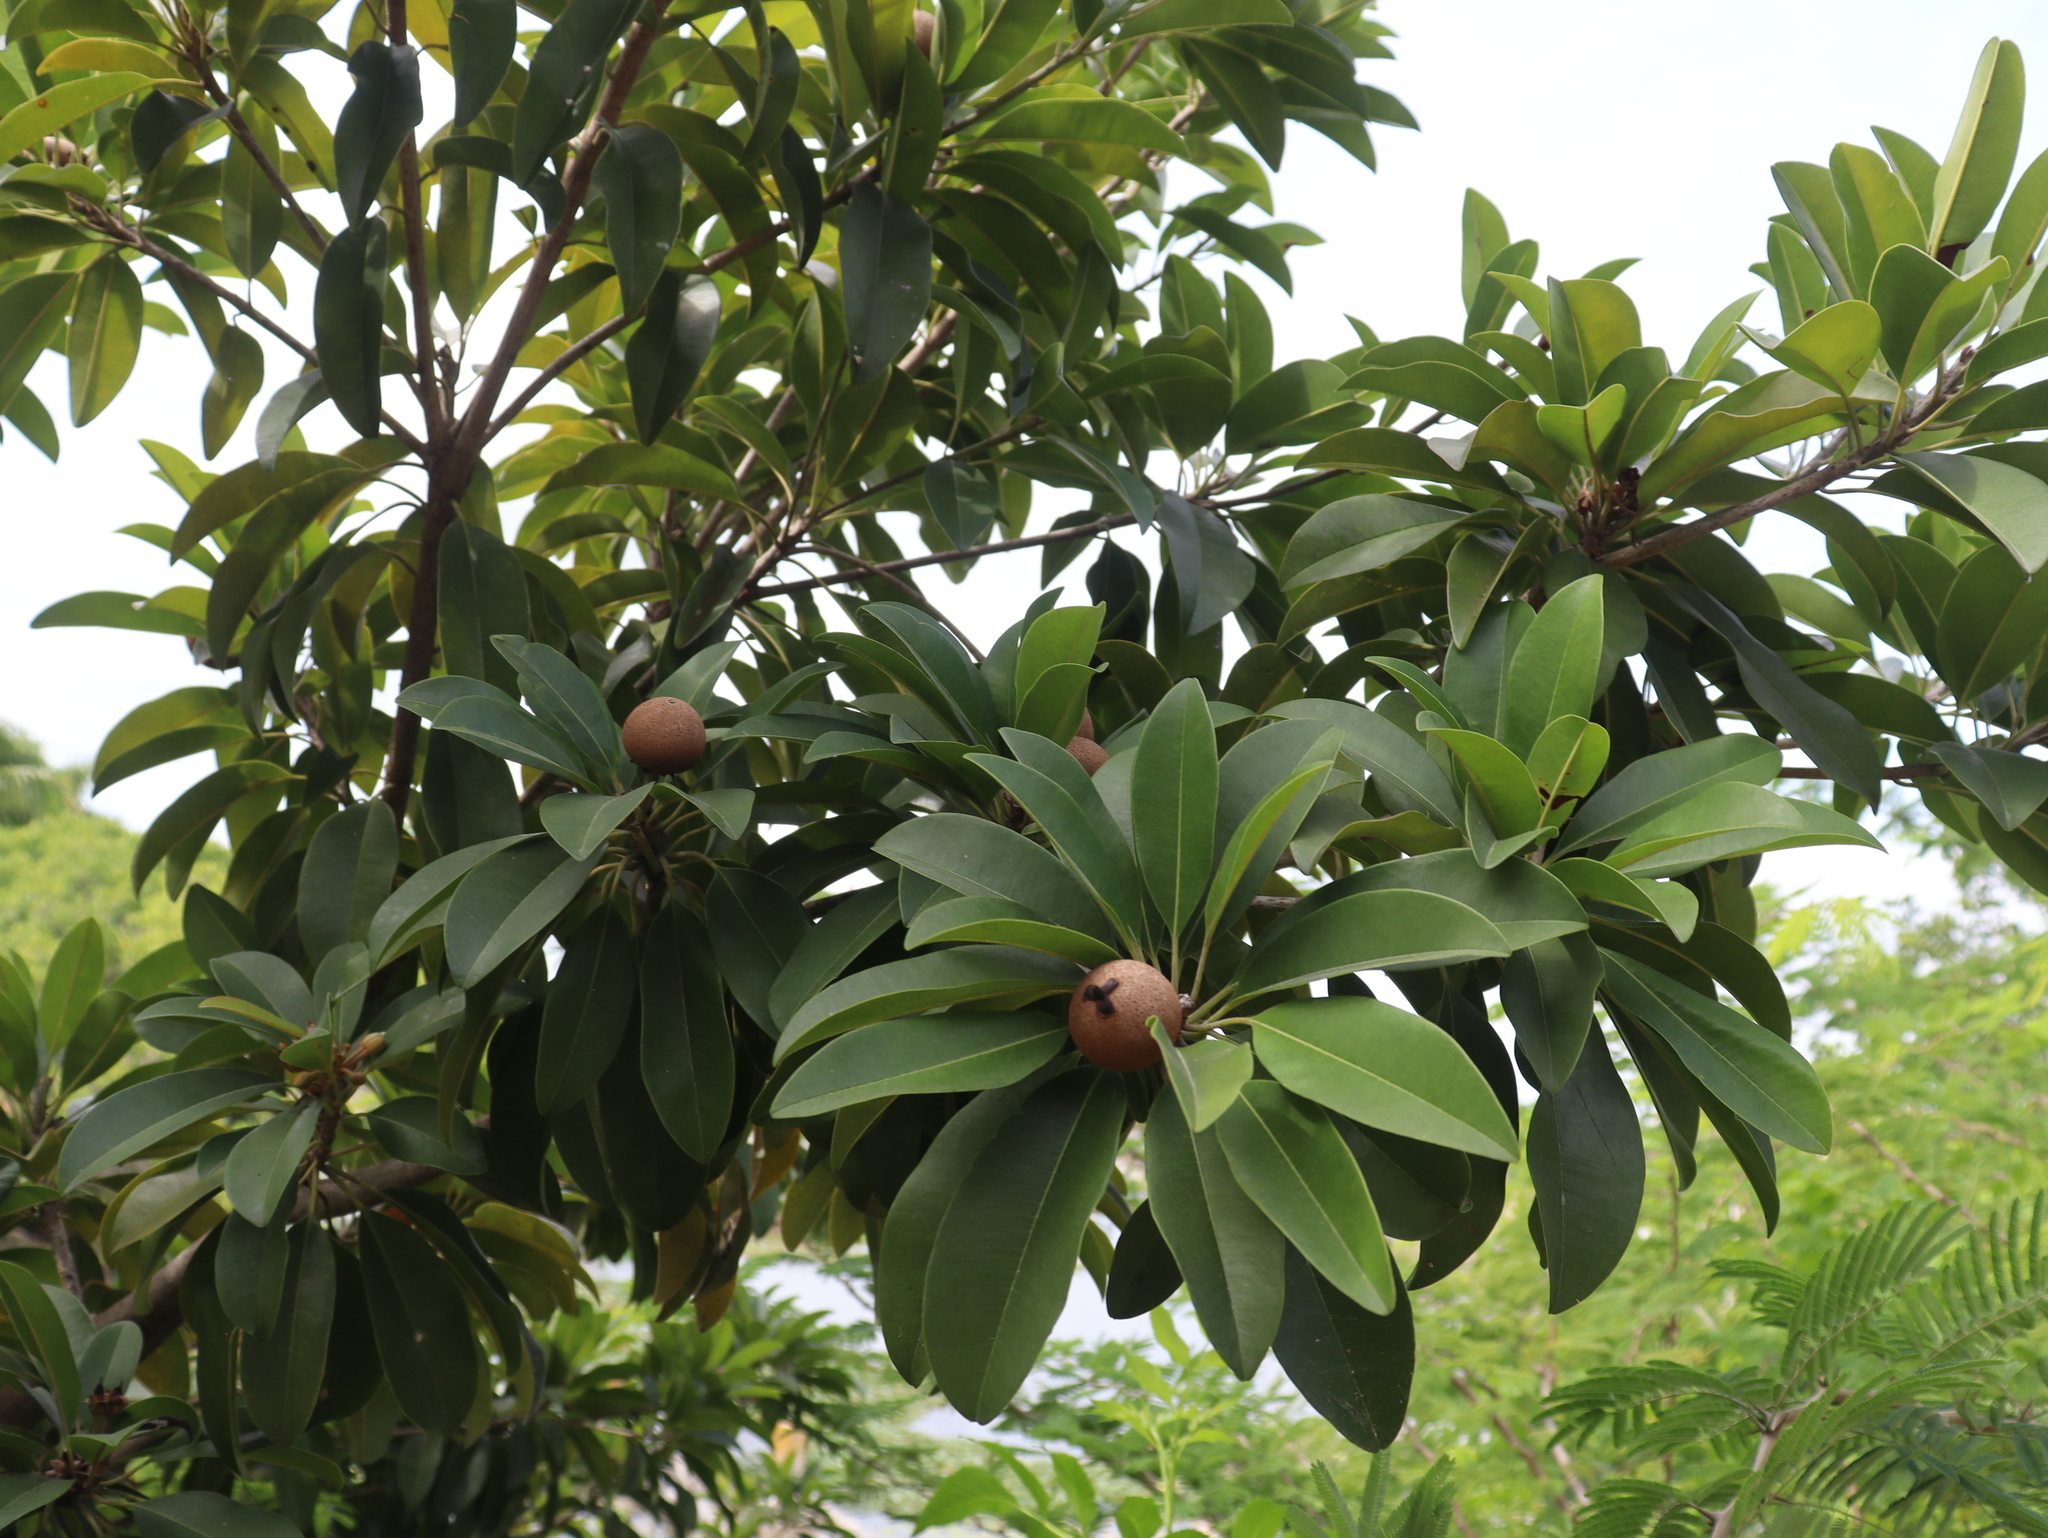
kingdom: Plantae
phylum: Tracheophyta
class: Magnoliopsida
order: Ericales
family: Sapotaceae
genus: Manilkara
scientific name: Manilkara zapota
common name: Sapodilla
